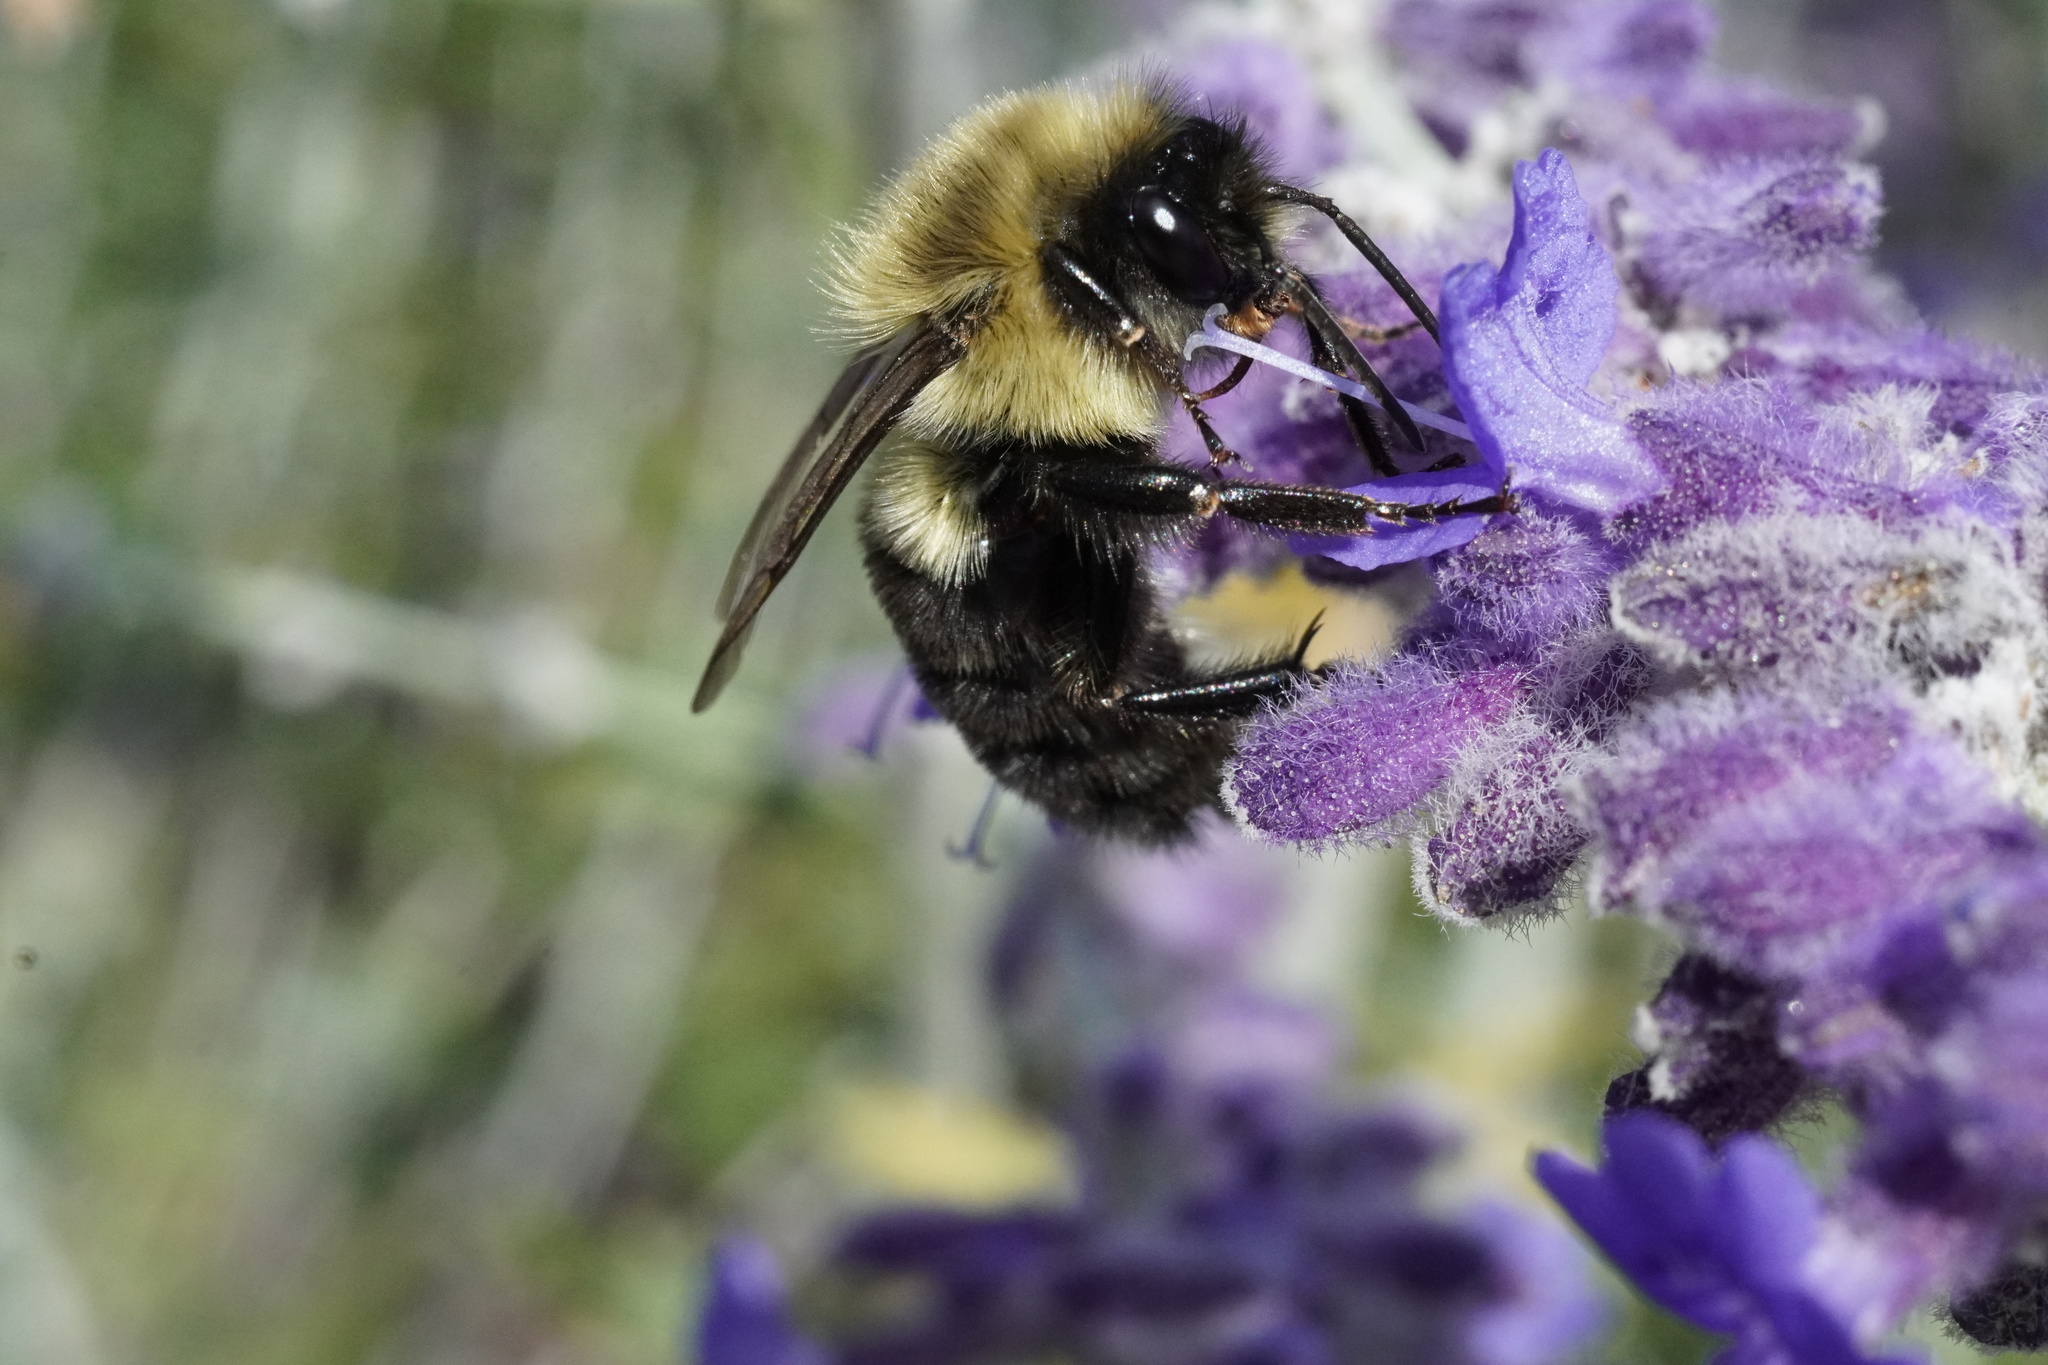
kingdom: Animalia
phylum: Arthropoda
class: Insecta
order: Hymenoptera
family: Apidae
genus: Bombus
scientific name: Bombus impatiens
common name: Common eastern bumble bee
